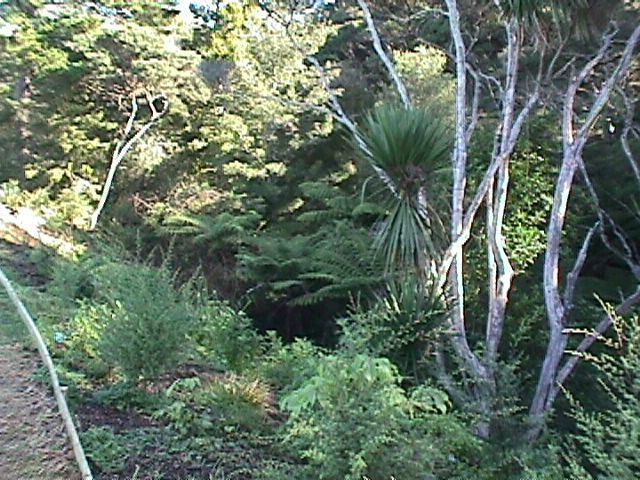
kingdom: Plantae
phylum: Tracheophyta
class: Magnoliopsida
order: Myrtales
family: Myrtaceae
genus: Kunzea
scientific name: Kunzea robusta
